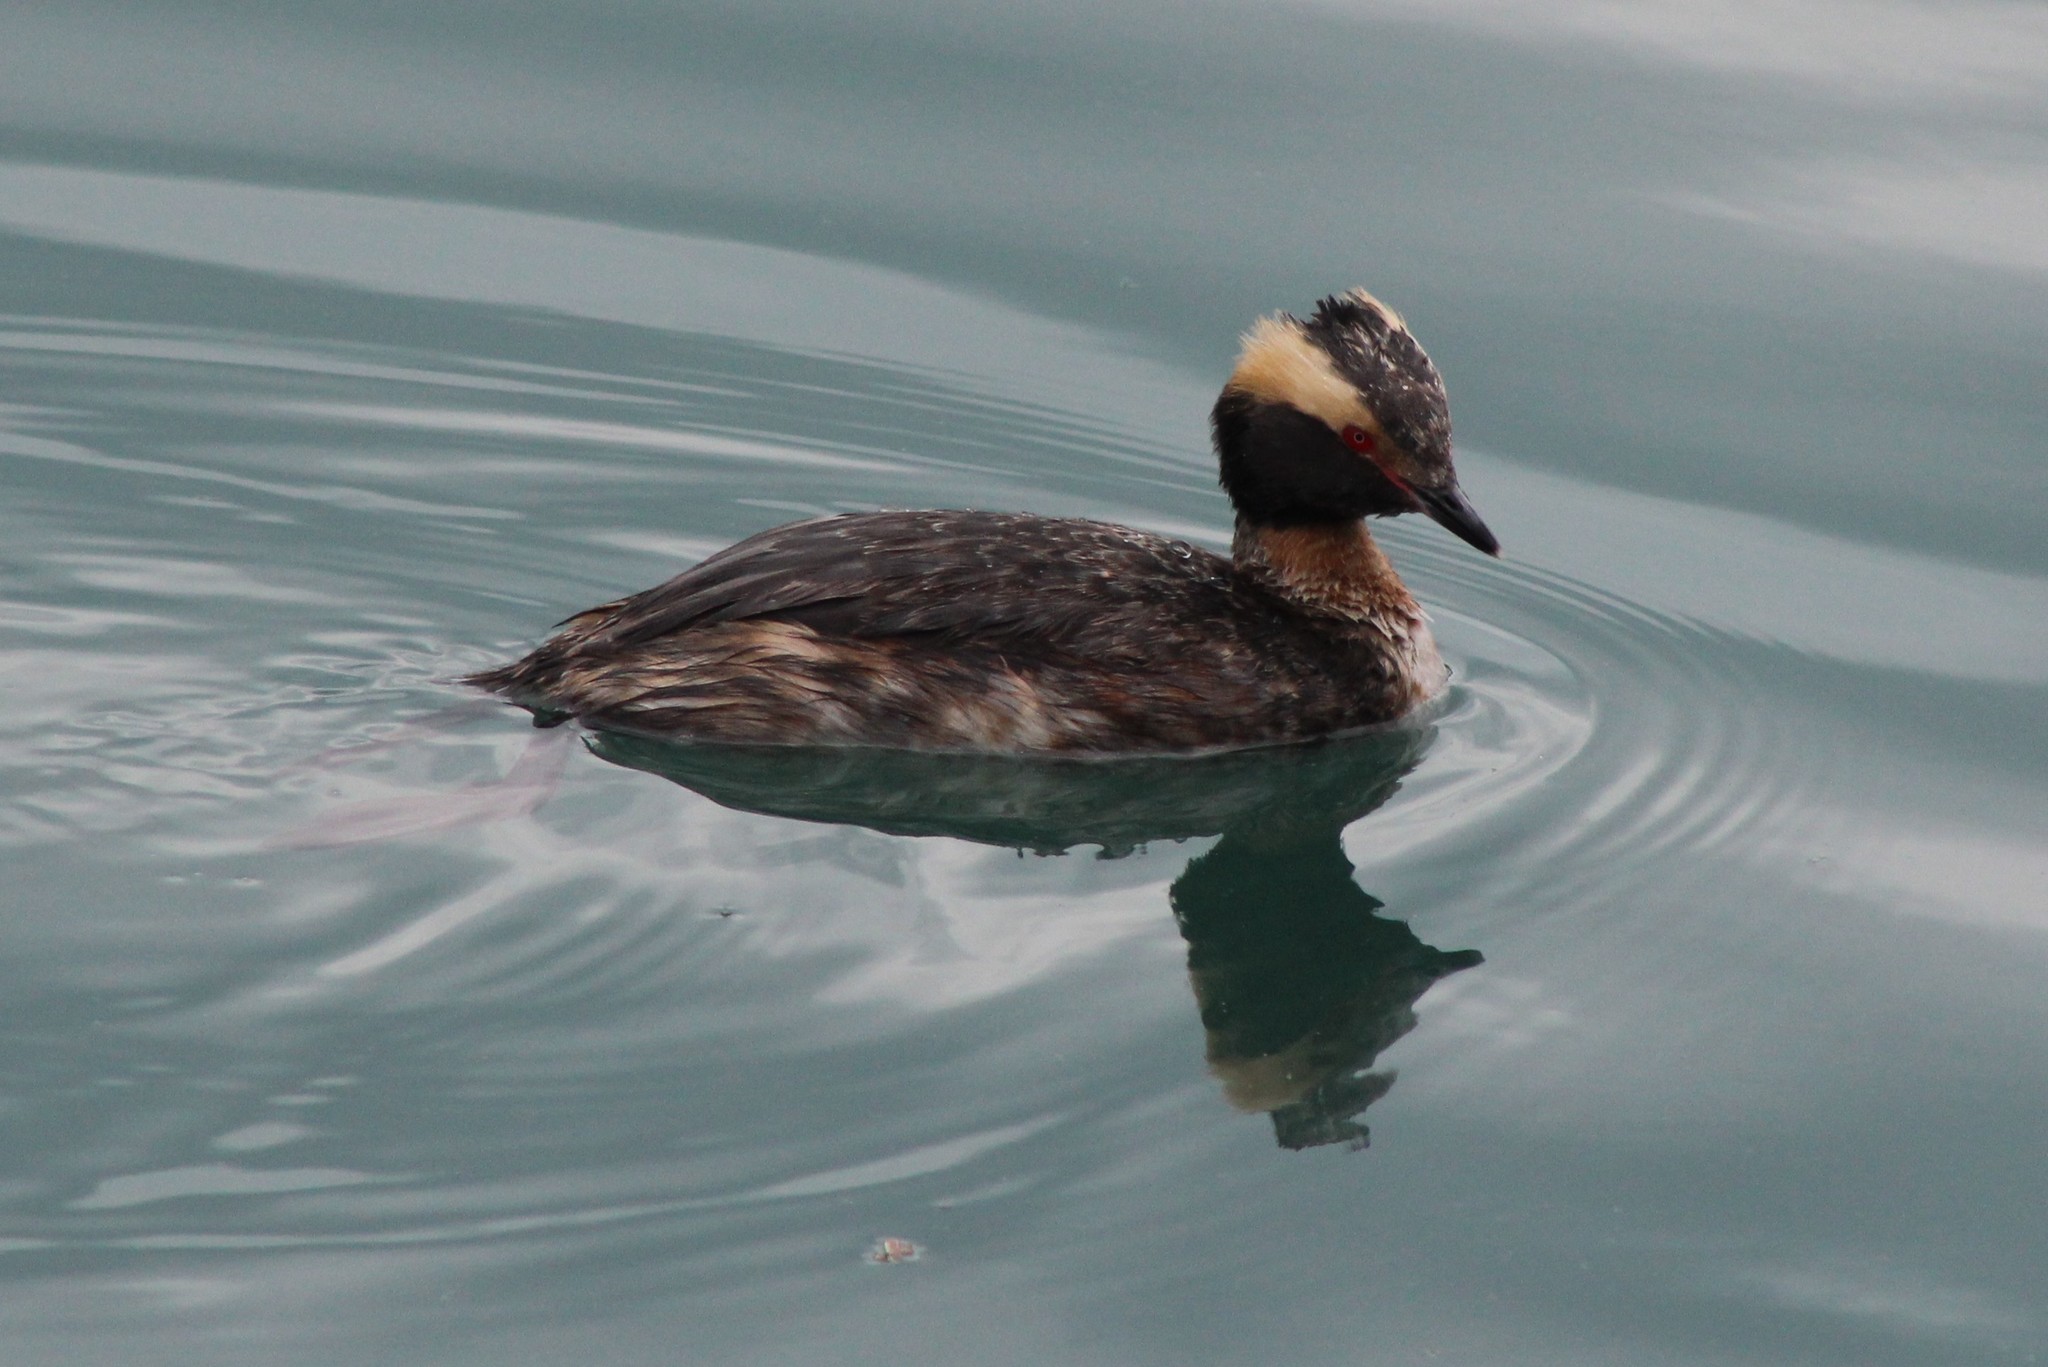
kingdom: Animalia
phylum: Chordata
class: Aves
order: Podicipediformes
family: Podicipedidae
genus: Podiceps
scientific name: Podiceps auritus
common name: Horned grebe
